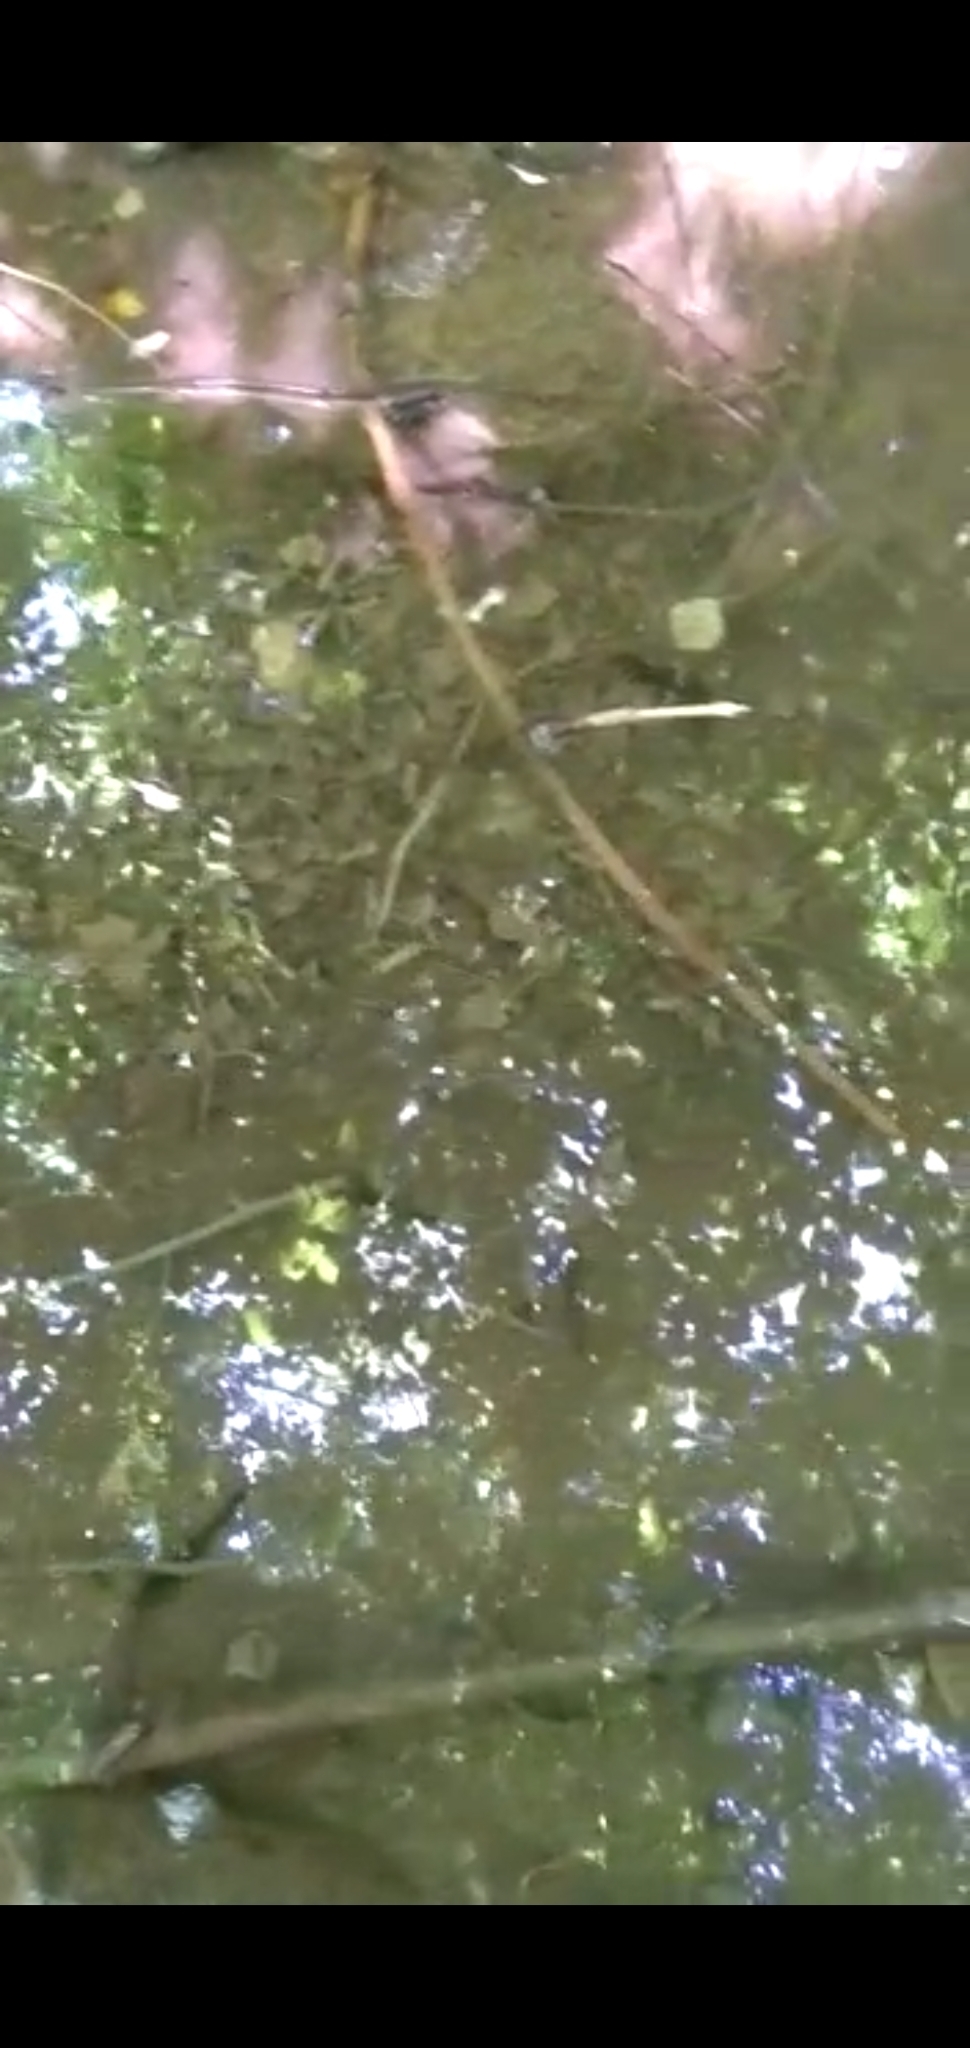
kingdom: Animalia
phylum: Chordata
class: Amphibia
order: Caudata
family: Salamandridae
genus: Salamandra
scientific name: Salamandra salamandra
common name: Fire salamander
